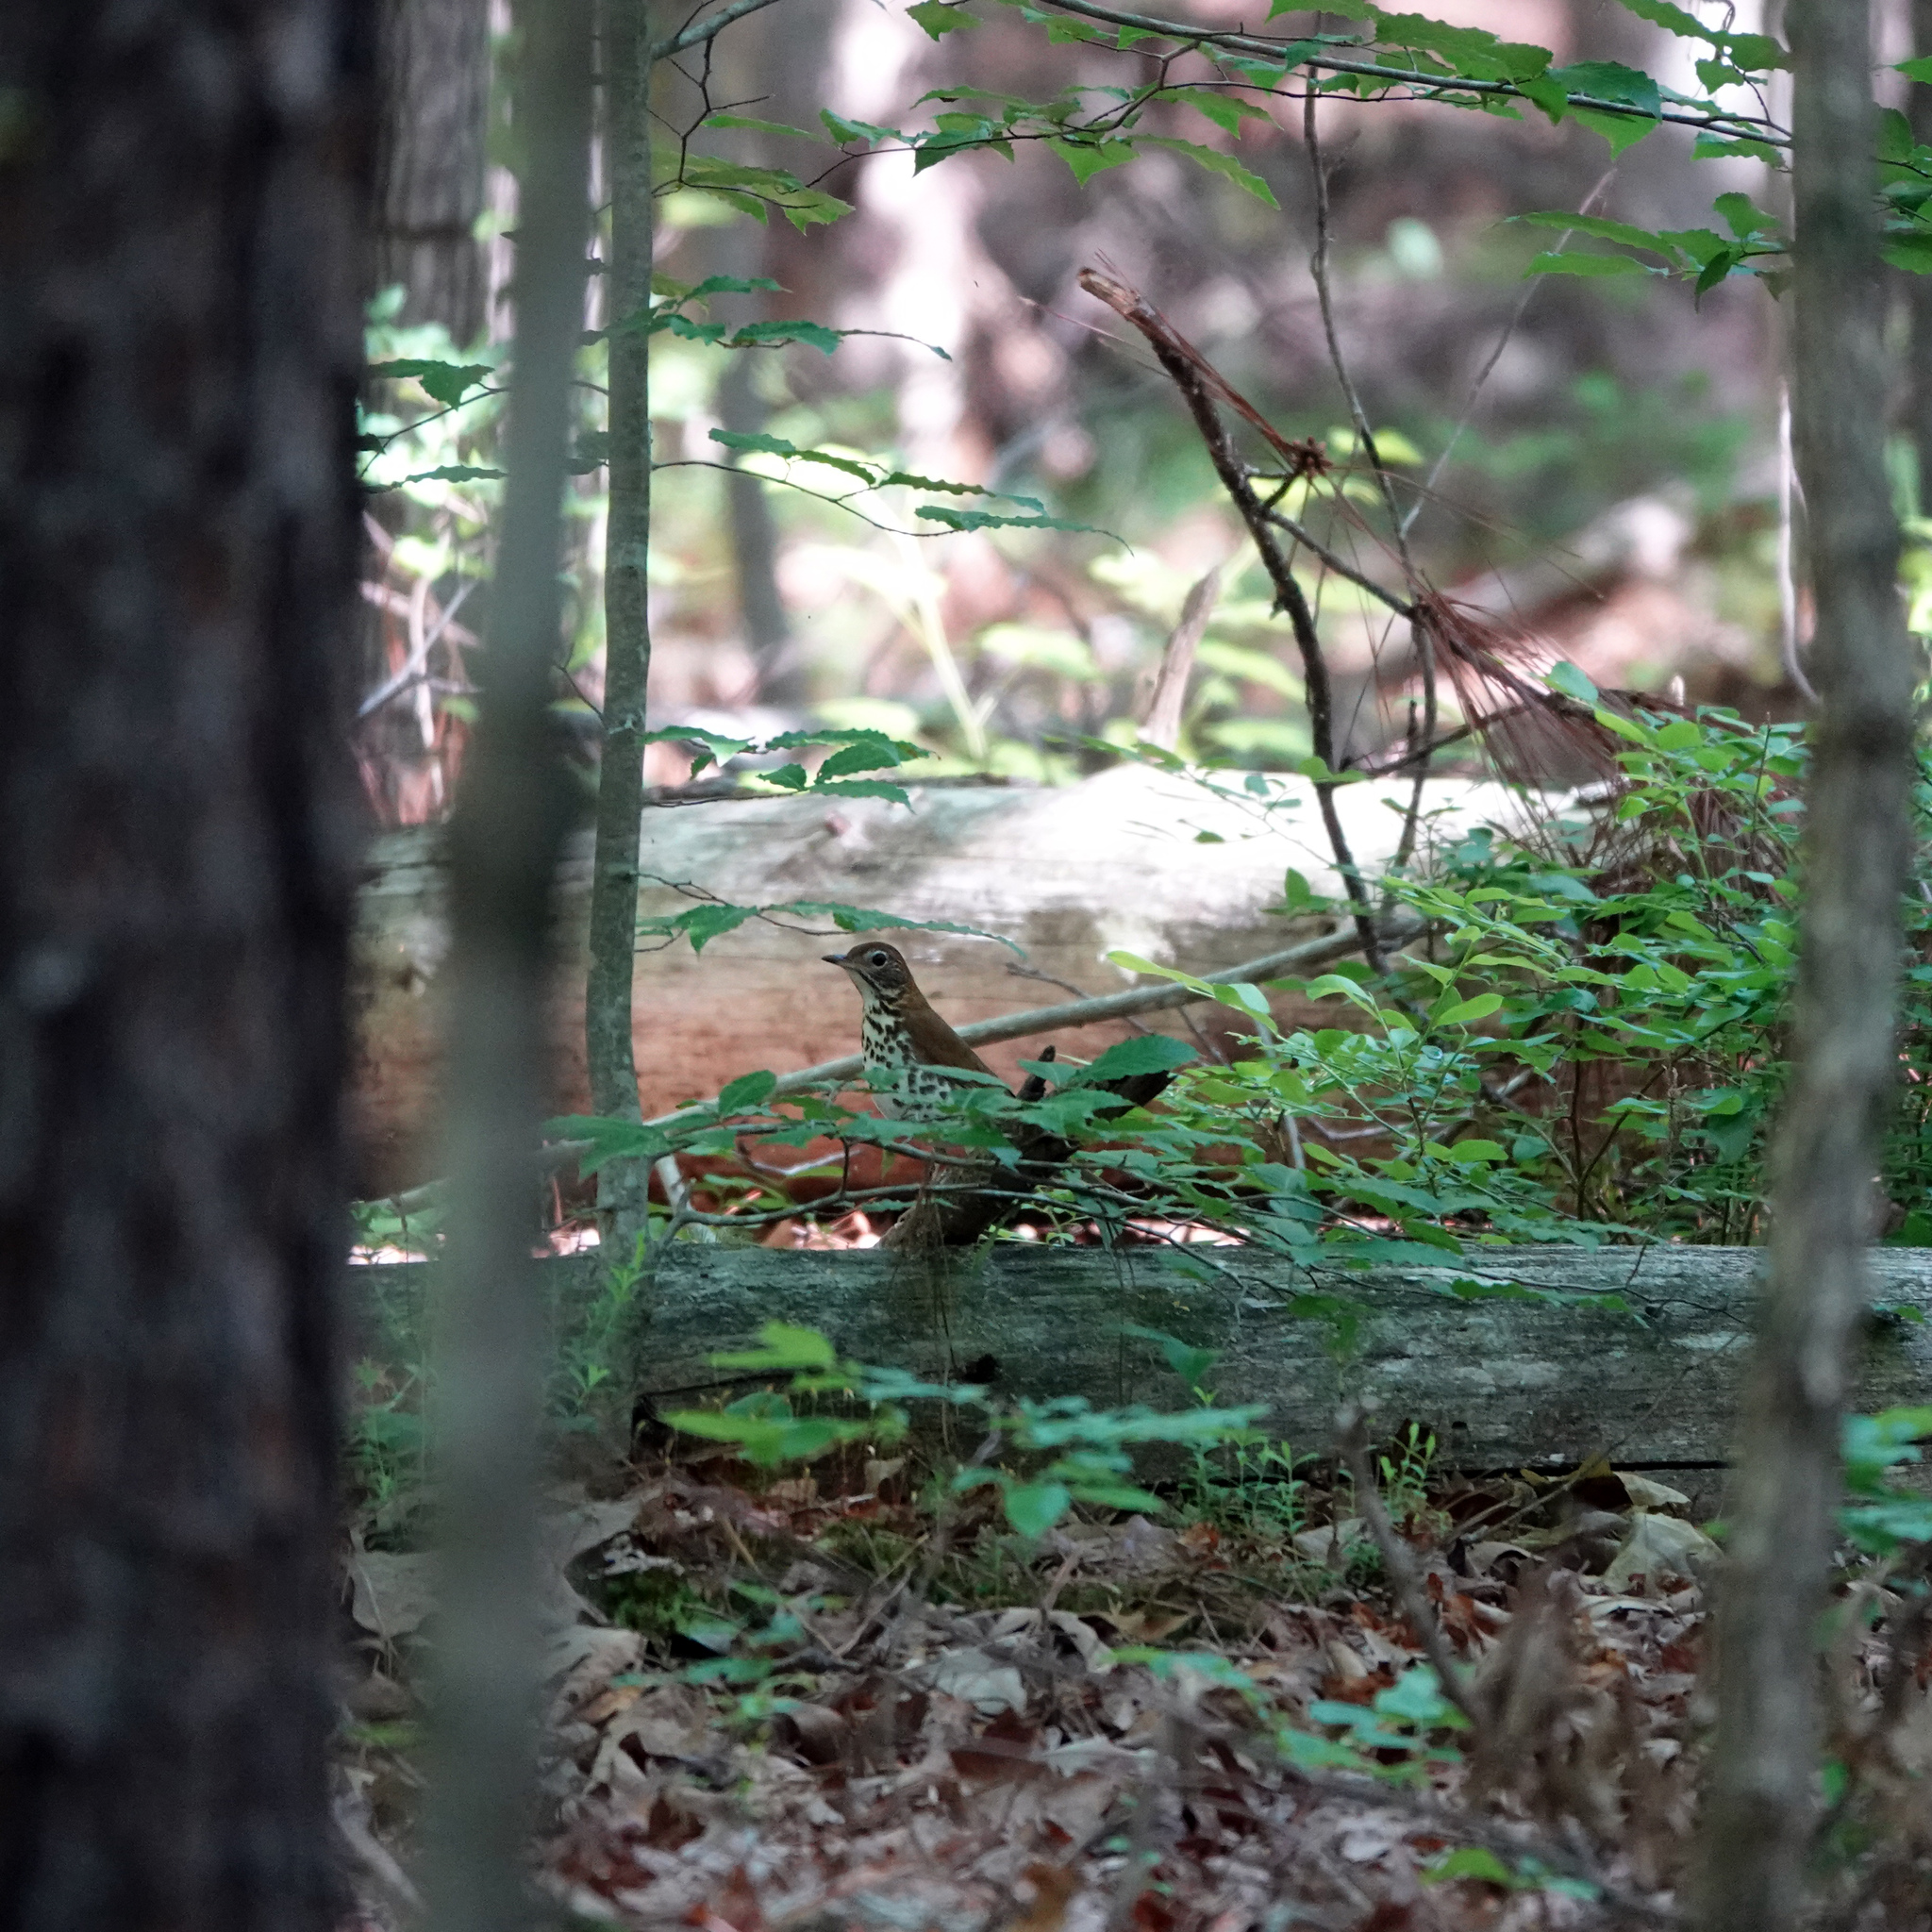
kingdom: Animalia
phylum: Chordata
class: Aves
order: Passeriformes
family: Turdidae
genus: Hylocichla
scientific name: Hylocichla mustelina
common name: Wood thrush
